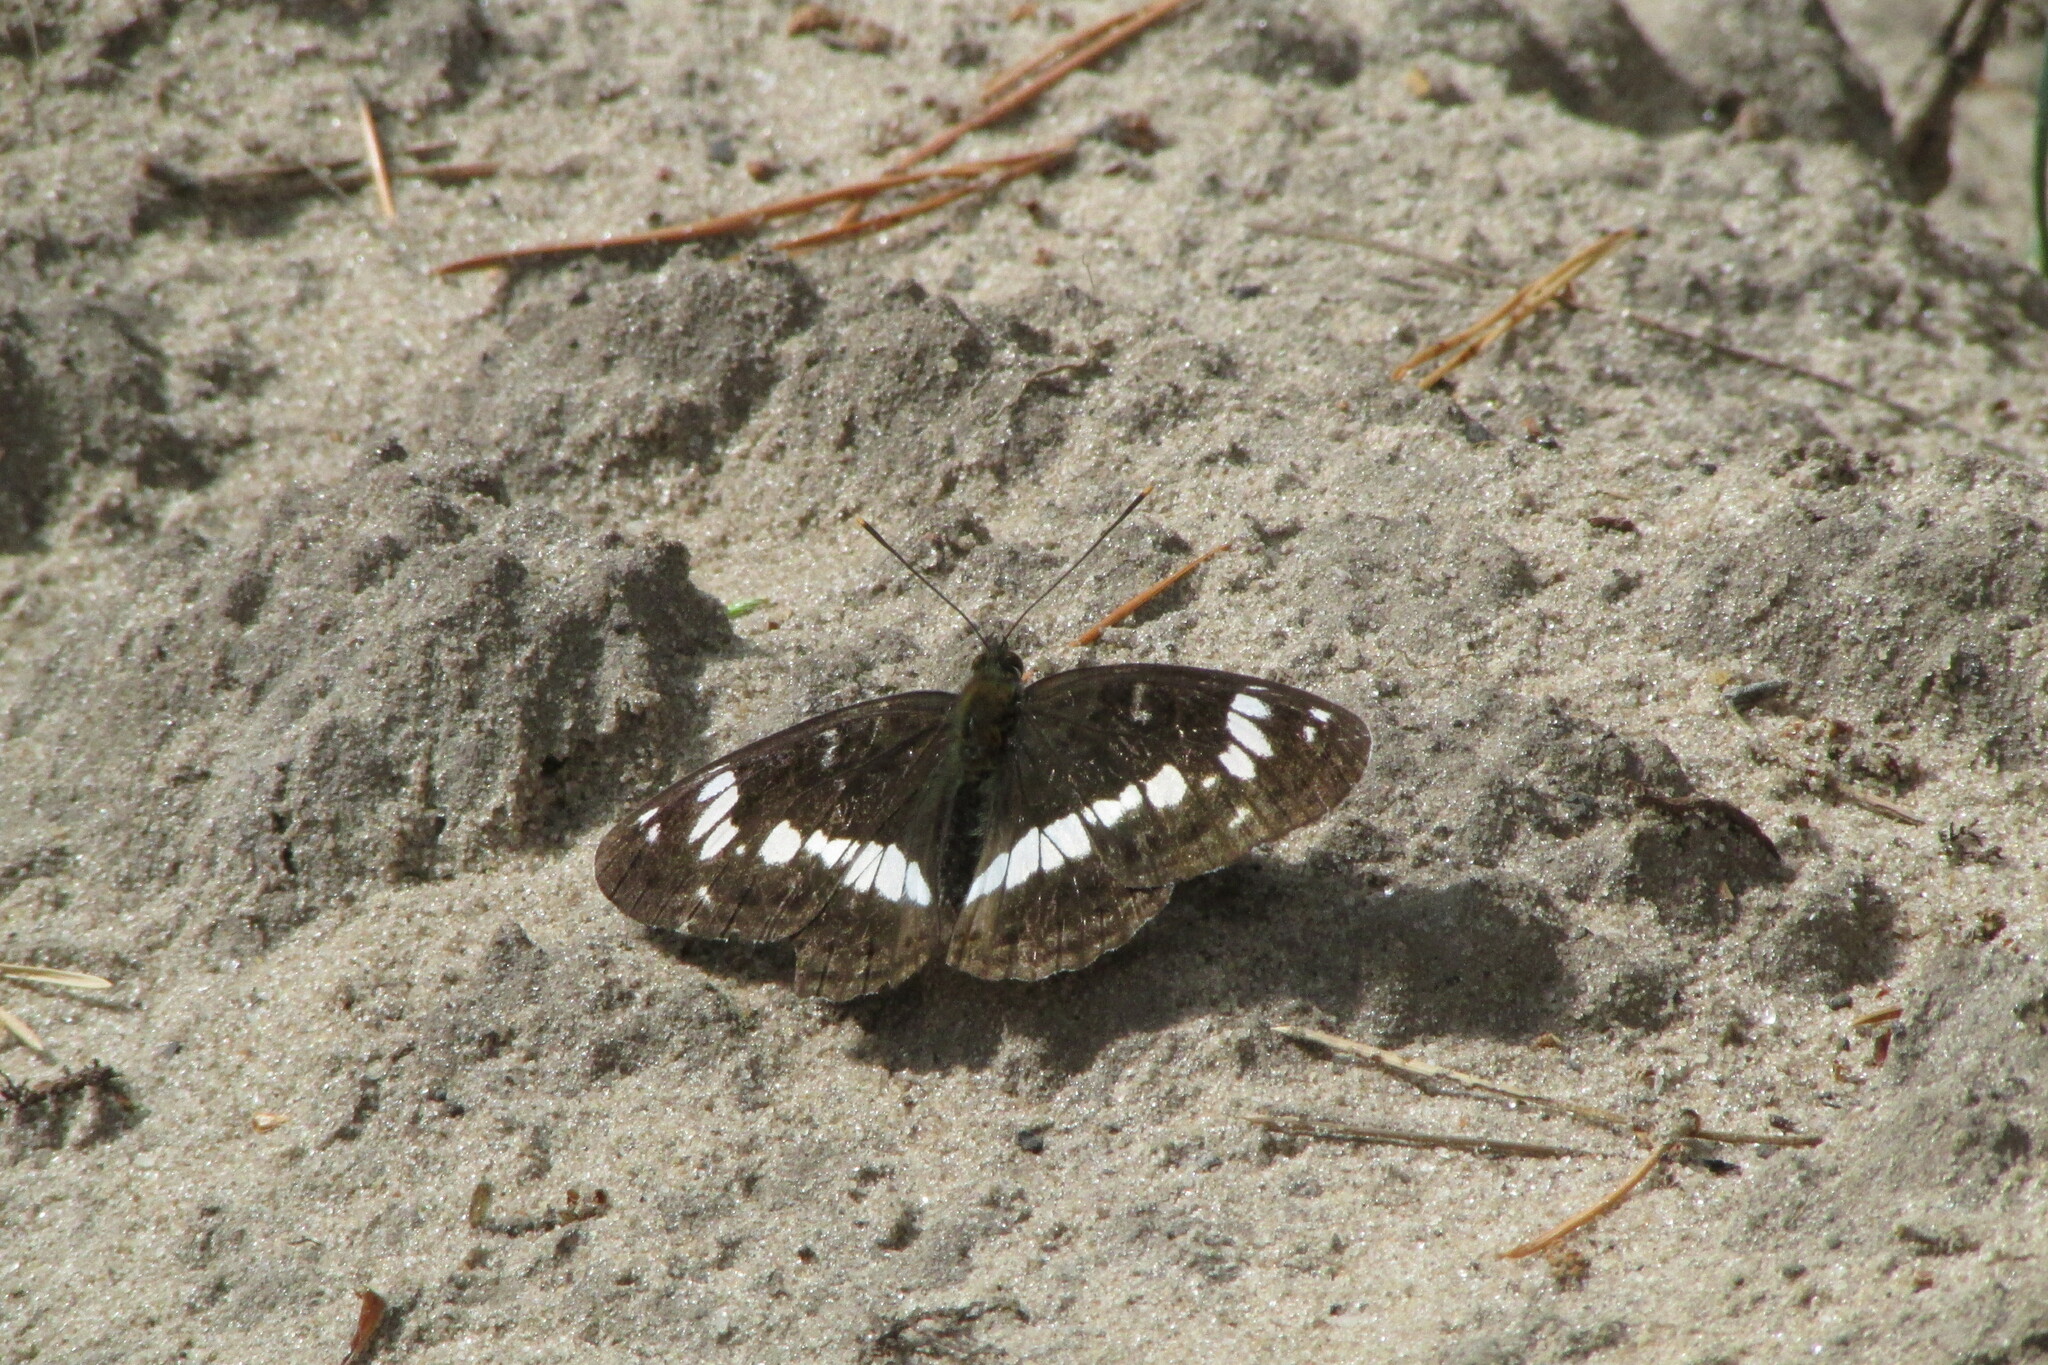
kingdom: Animalia
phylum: Arthropoda
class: Insecta
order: Lepidoptera
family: Nymphalidae
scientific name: Nymphalidae
